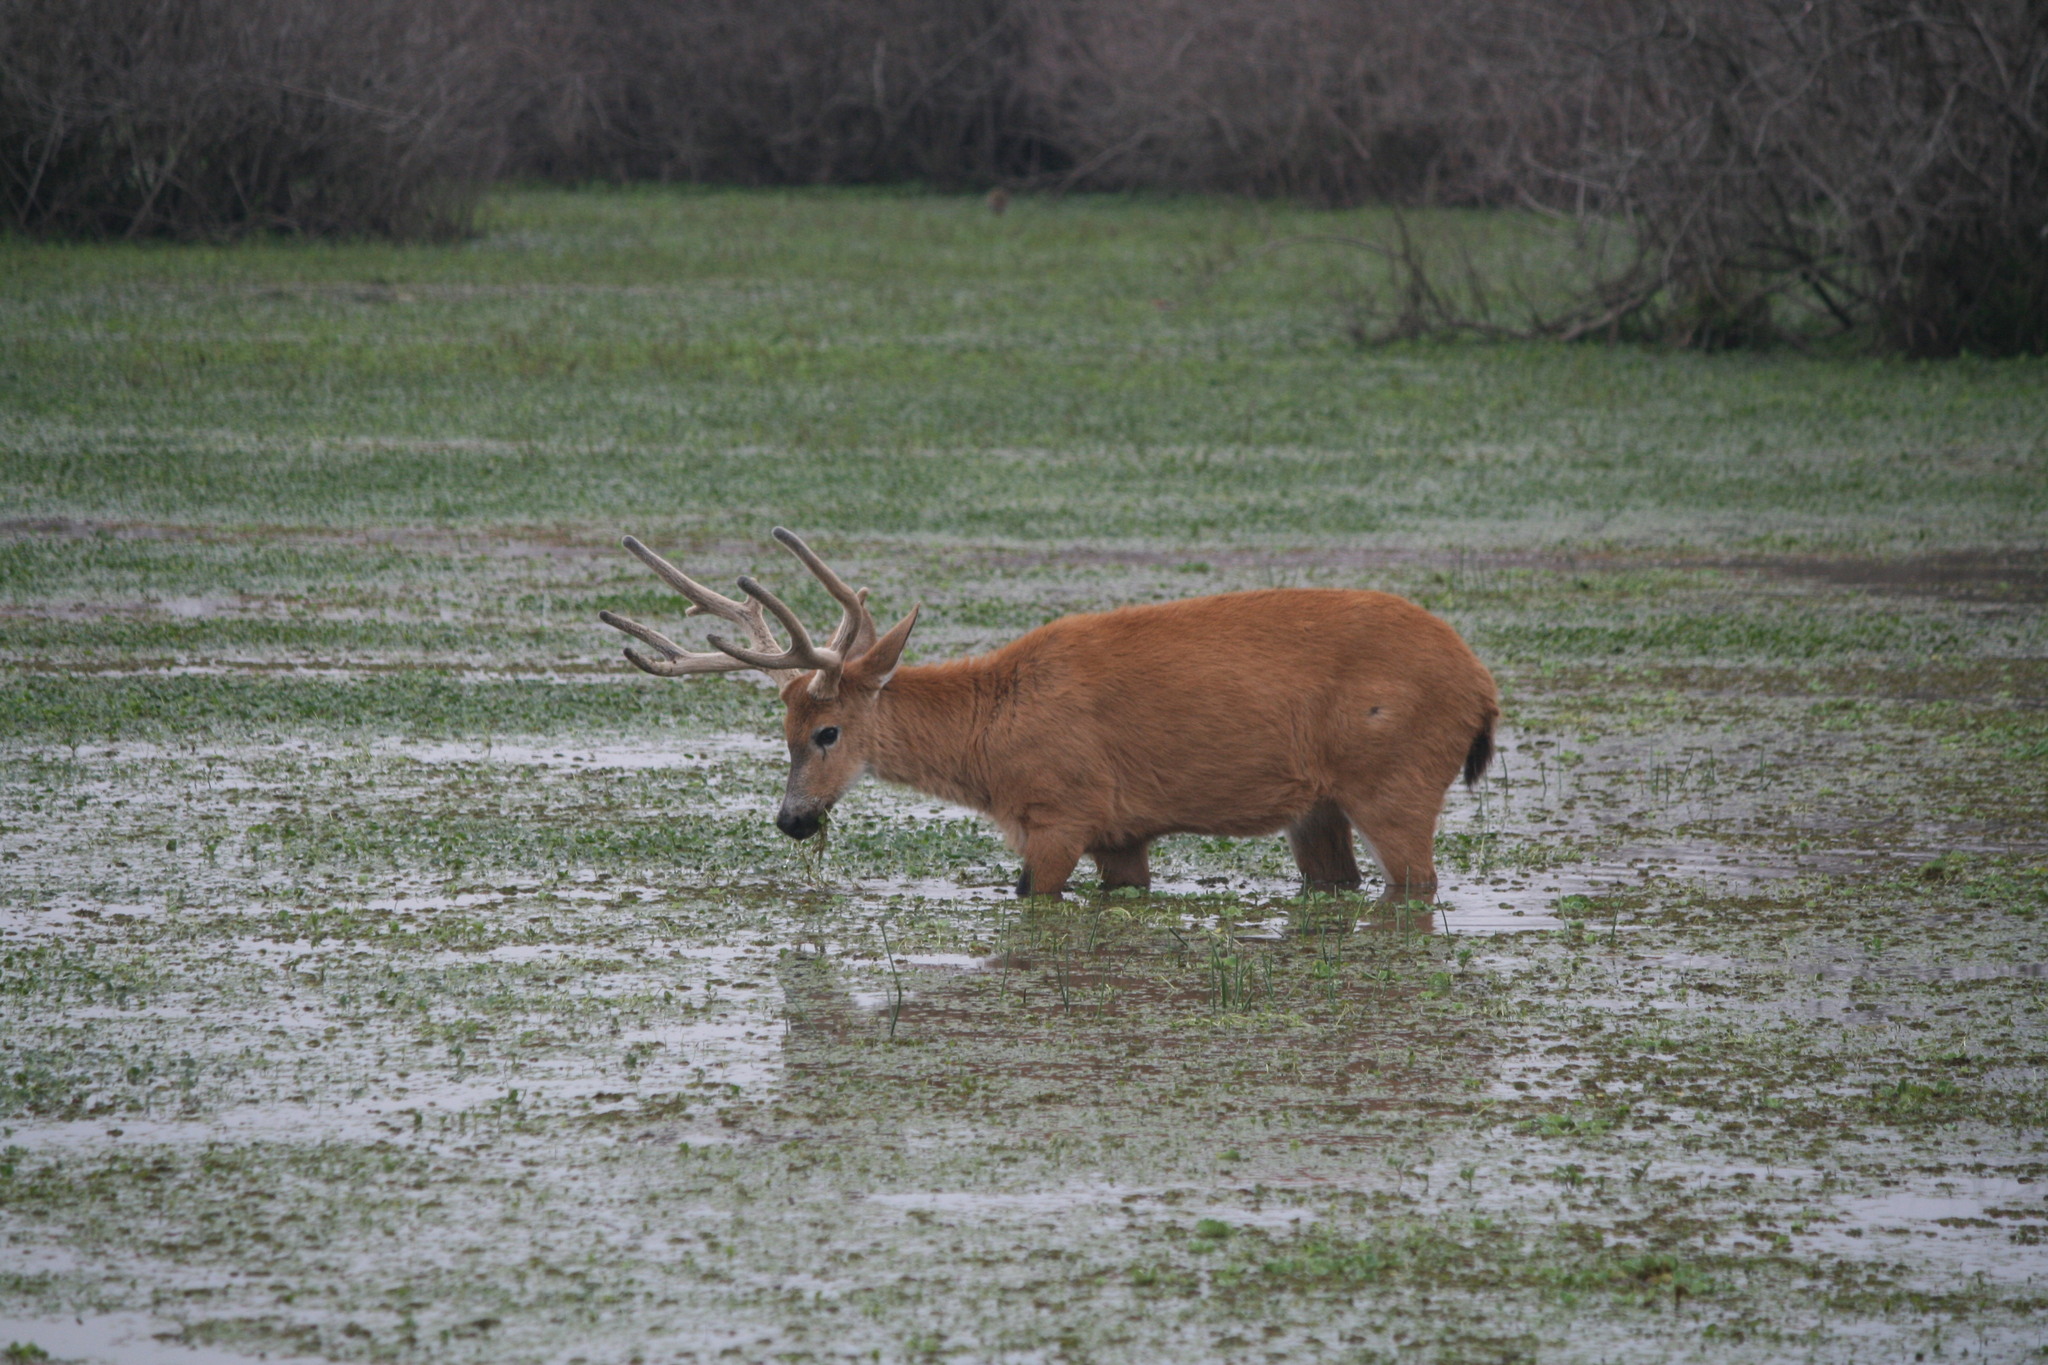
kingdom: Animalia
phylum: Chordata
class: Mammalia
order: Artiodactyla
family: Cervidae
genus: Blastocerus
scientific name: Blastocerus dichotomus
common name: Marsh deer
